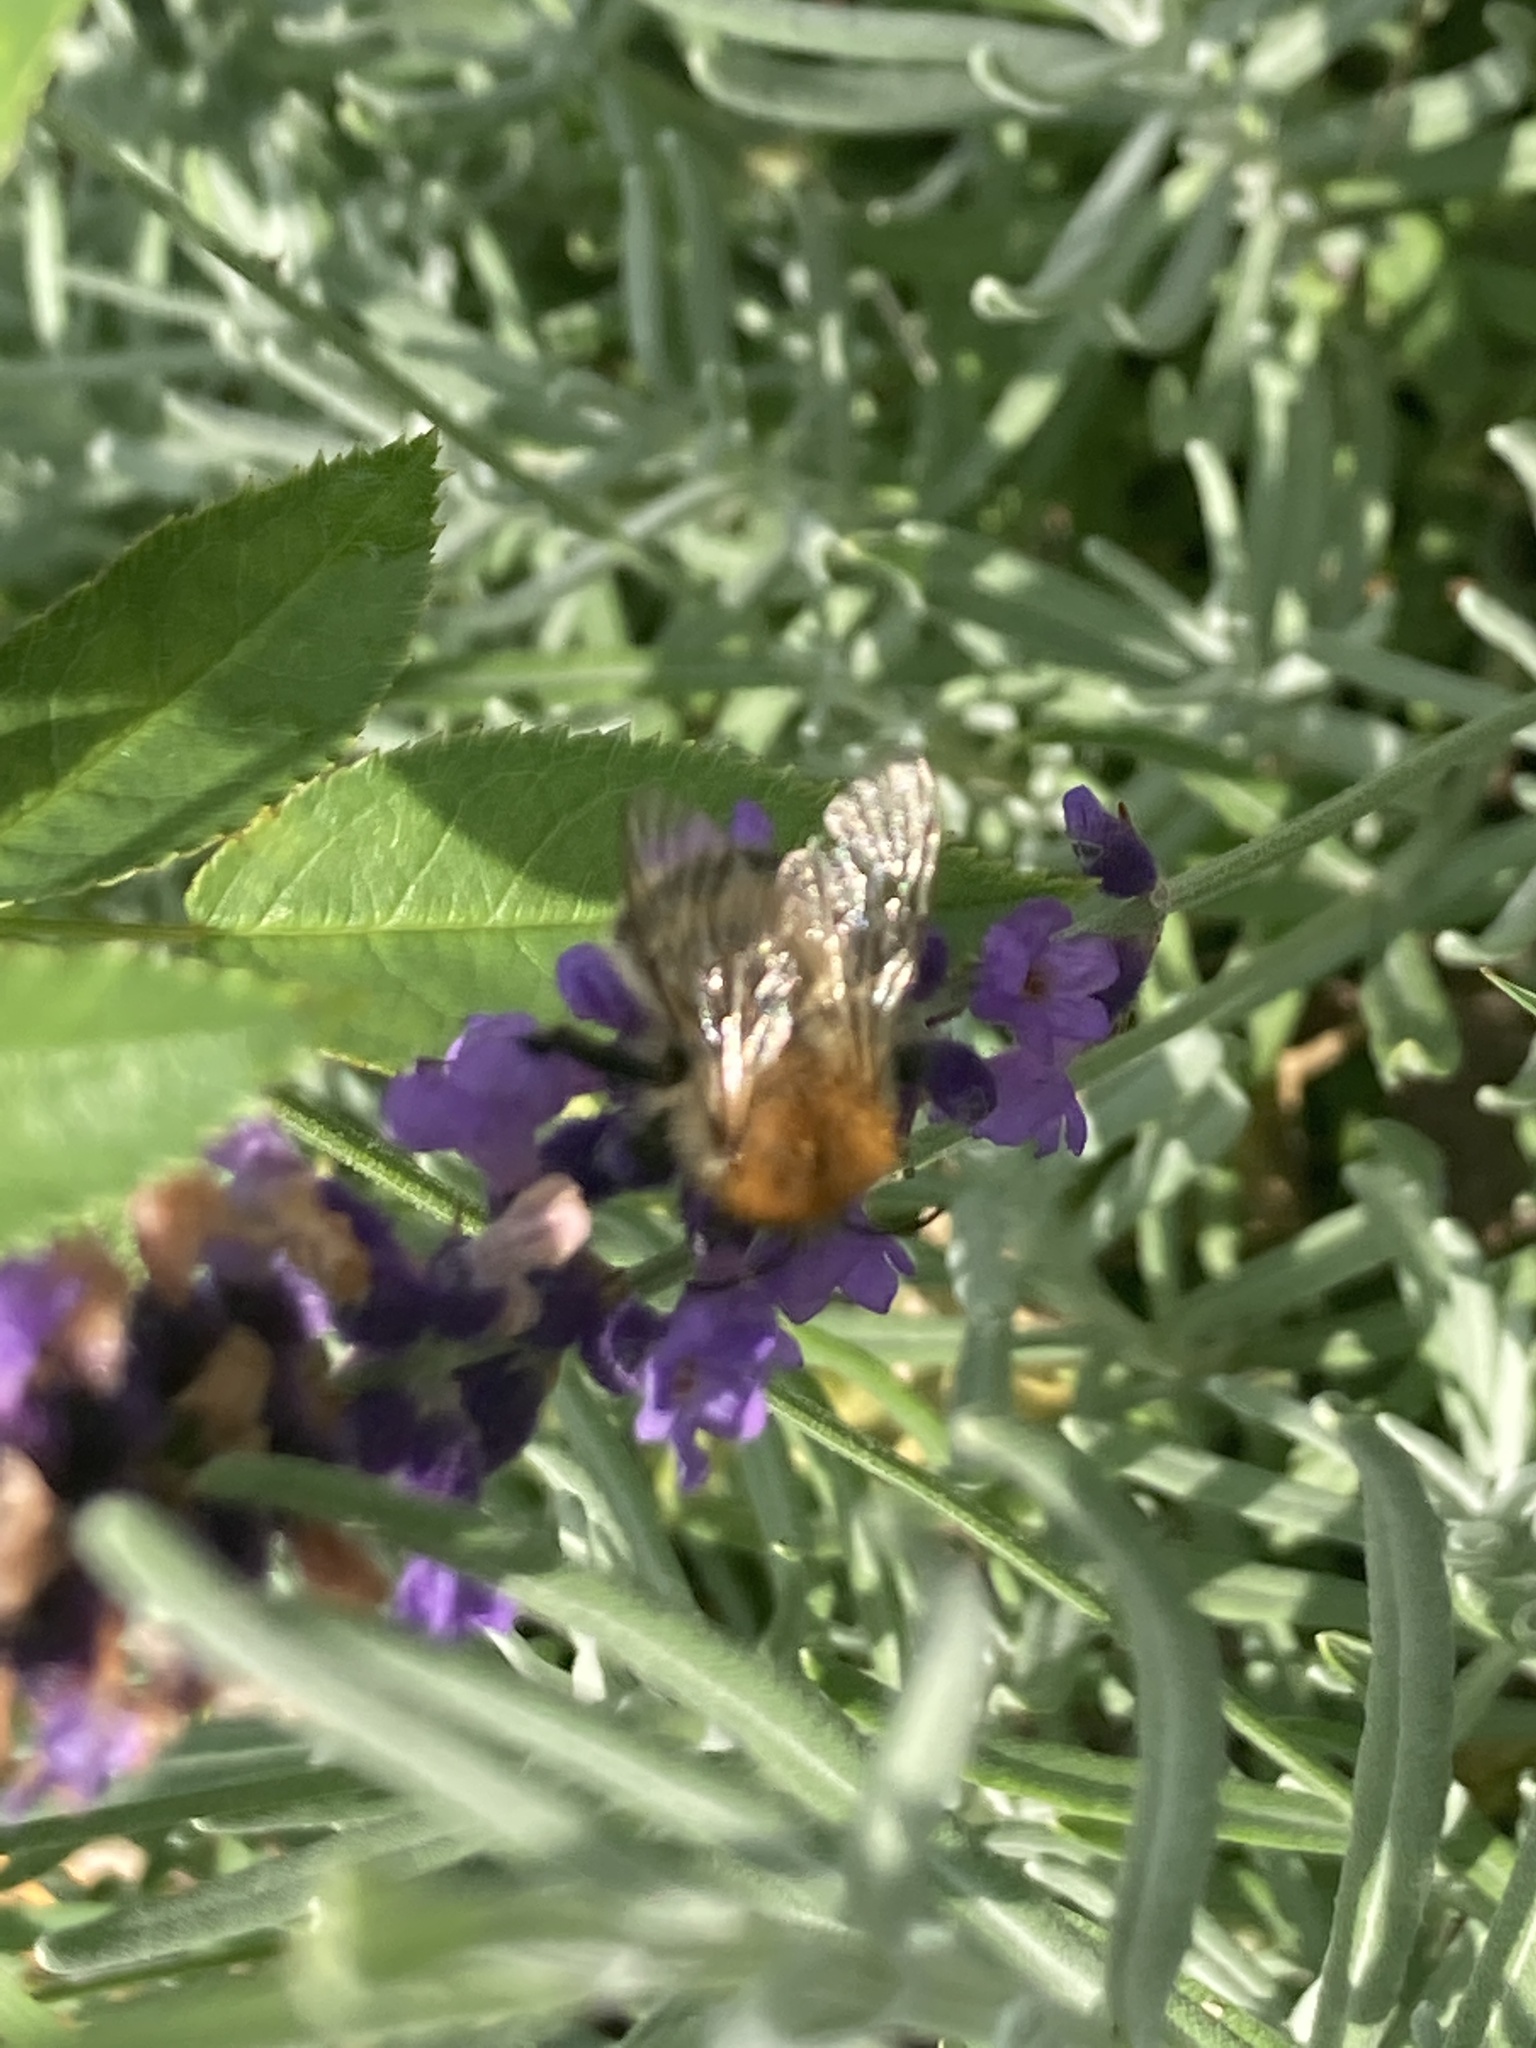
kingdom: Animalia
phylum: Arthropoda
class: Insecta
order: Hymenoptera
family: Apidae
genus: Bombus
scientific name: Bombus pascuorum
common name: Common carder bee
